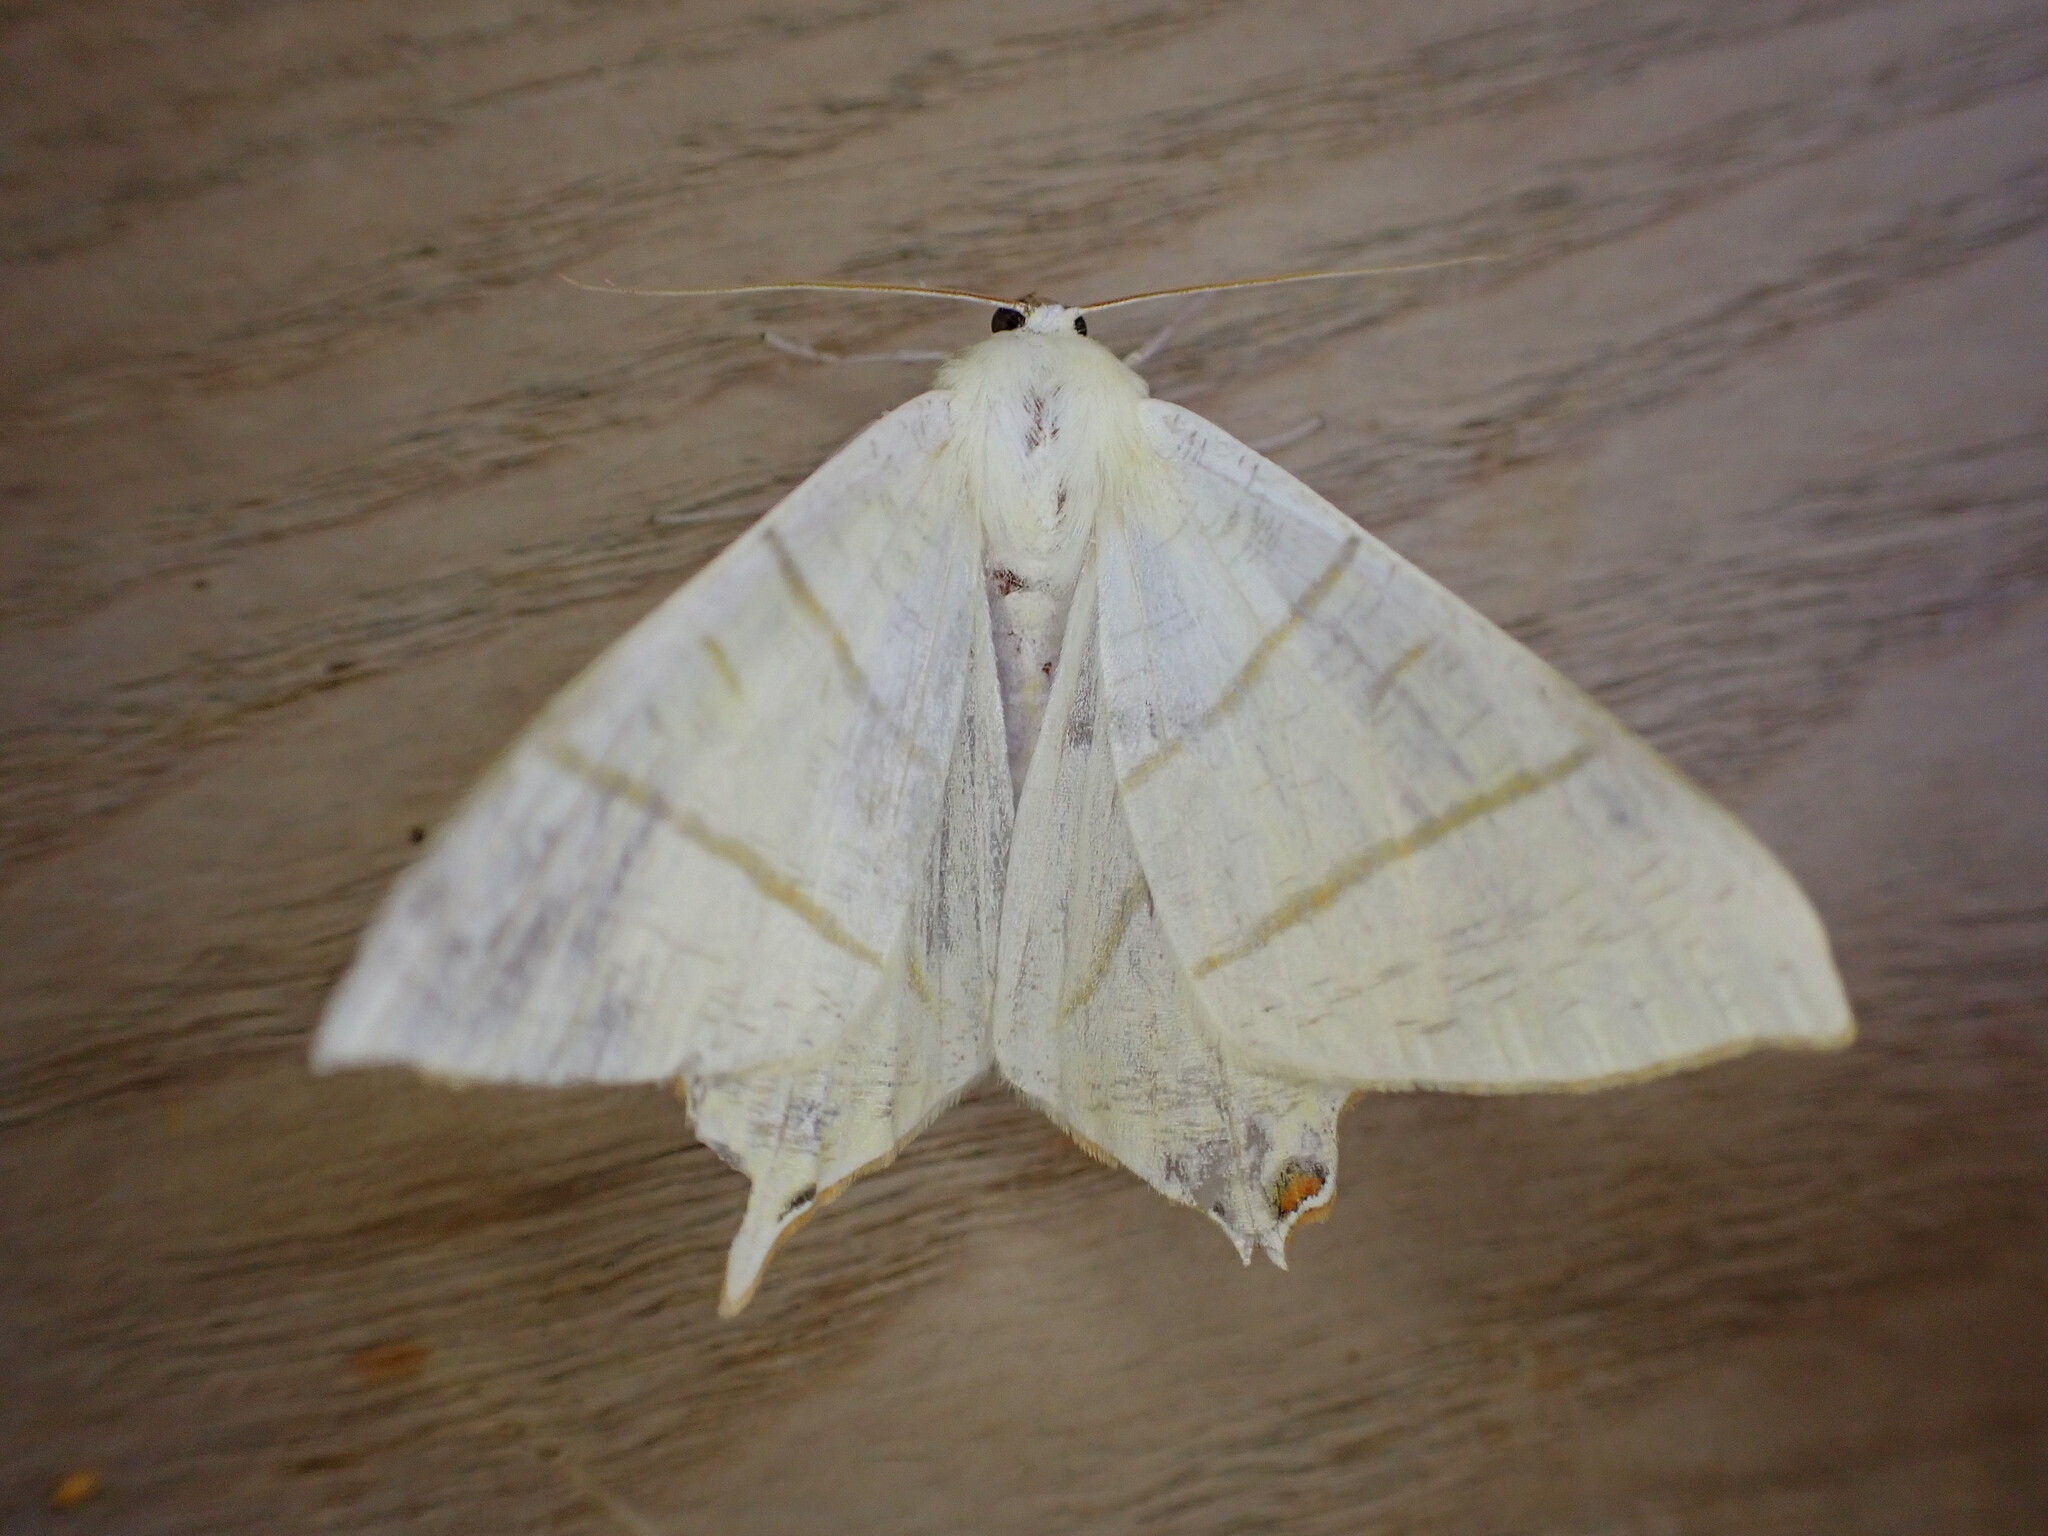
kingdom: Animalia
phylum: Arthropoda
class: Insecta
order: Lepidoptera
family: Geometridae
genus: Ourapteryx
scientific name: Ourapteryx sambucaria
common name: Swallow-tailed moth
